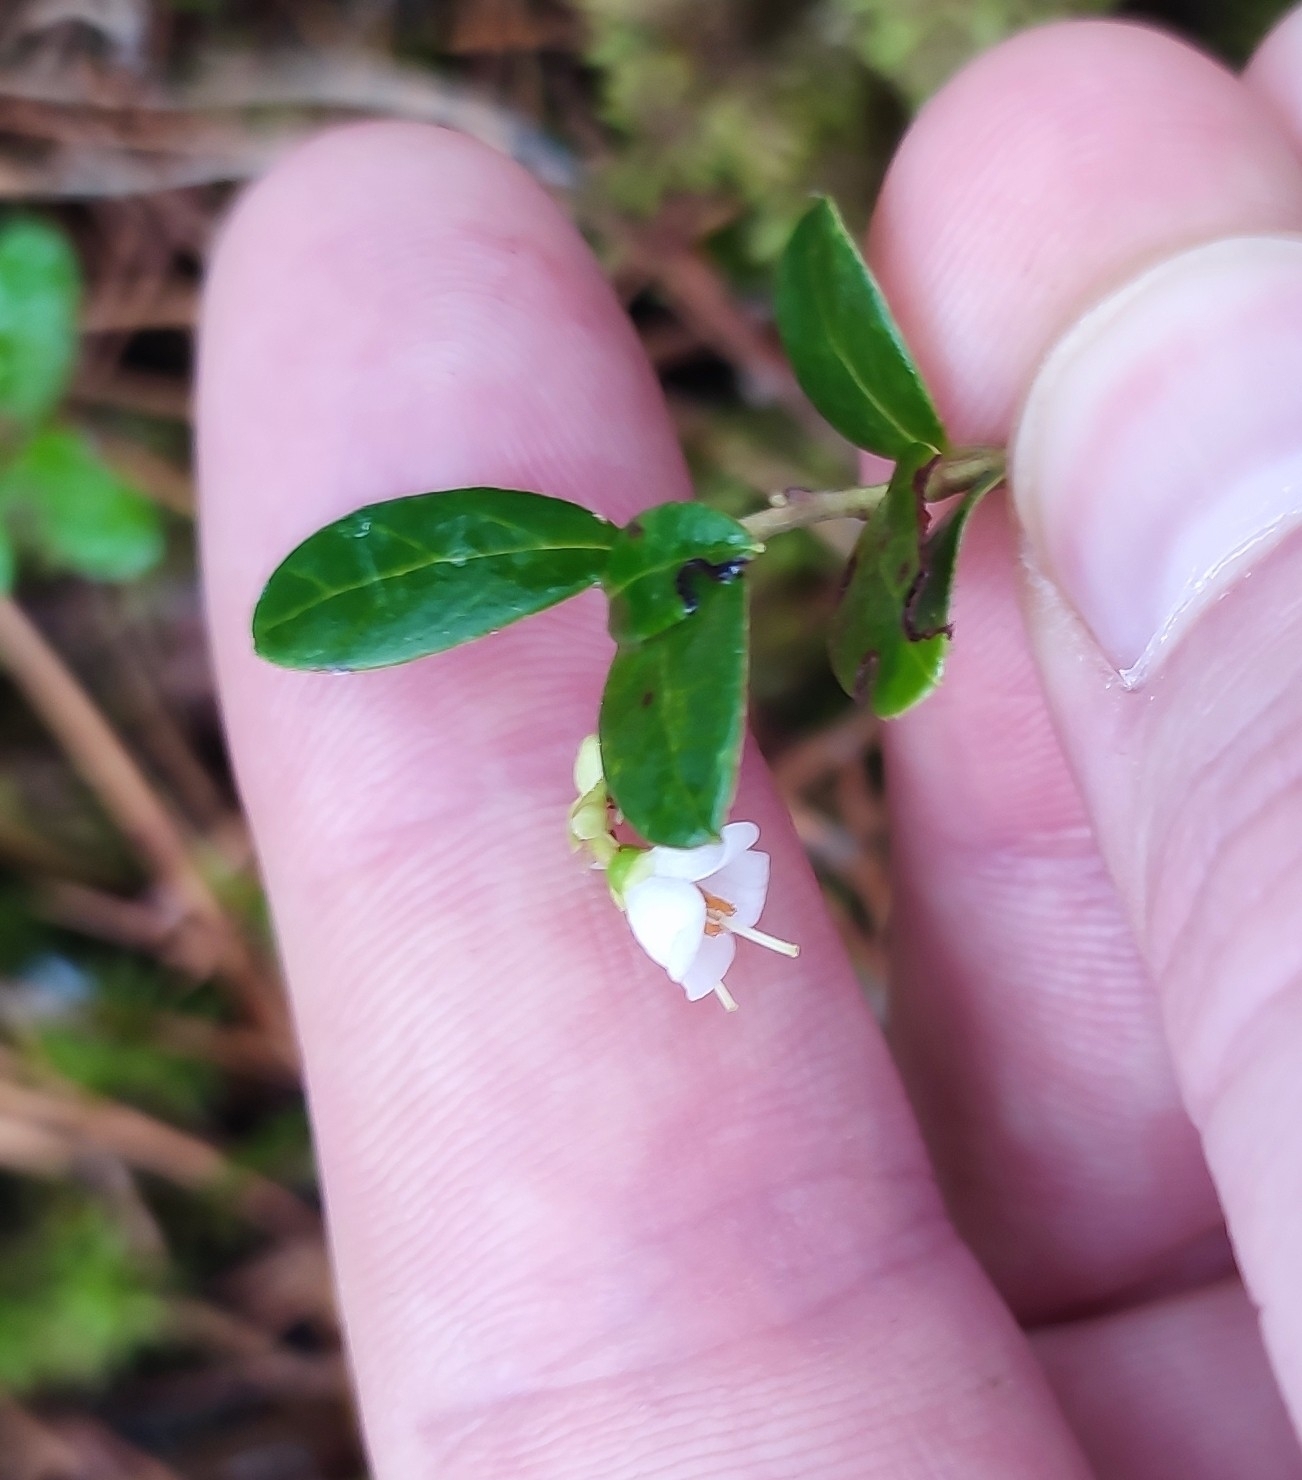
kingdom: Plantae
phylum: Tracheophyta
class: Magnoliopsida
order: Ericales
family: Ericaceae
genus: Vaccinium
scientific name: Vaccinium vitis-idaea
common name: Cowberry
